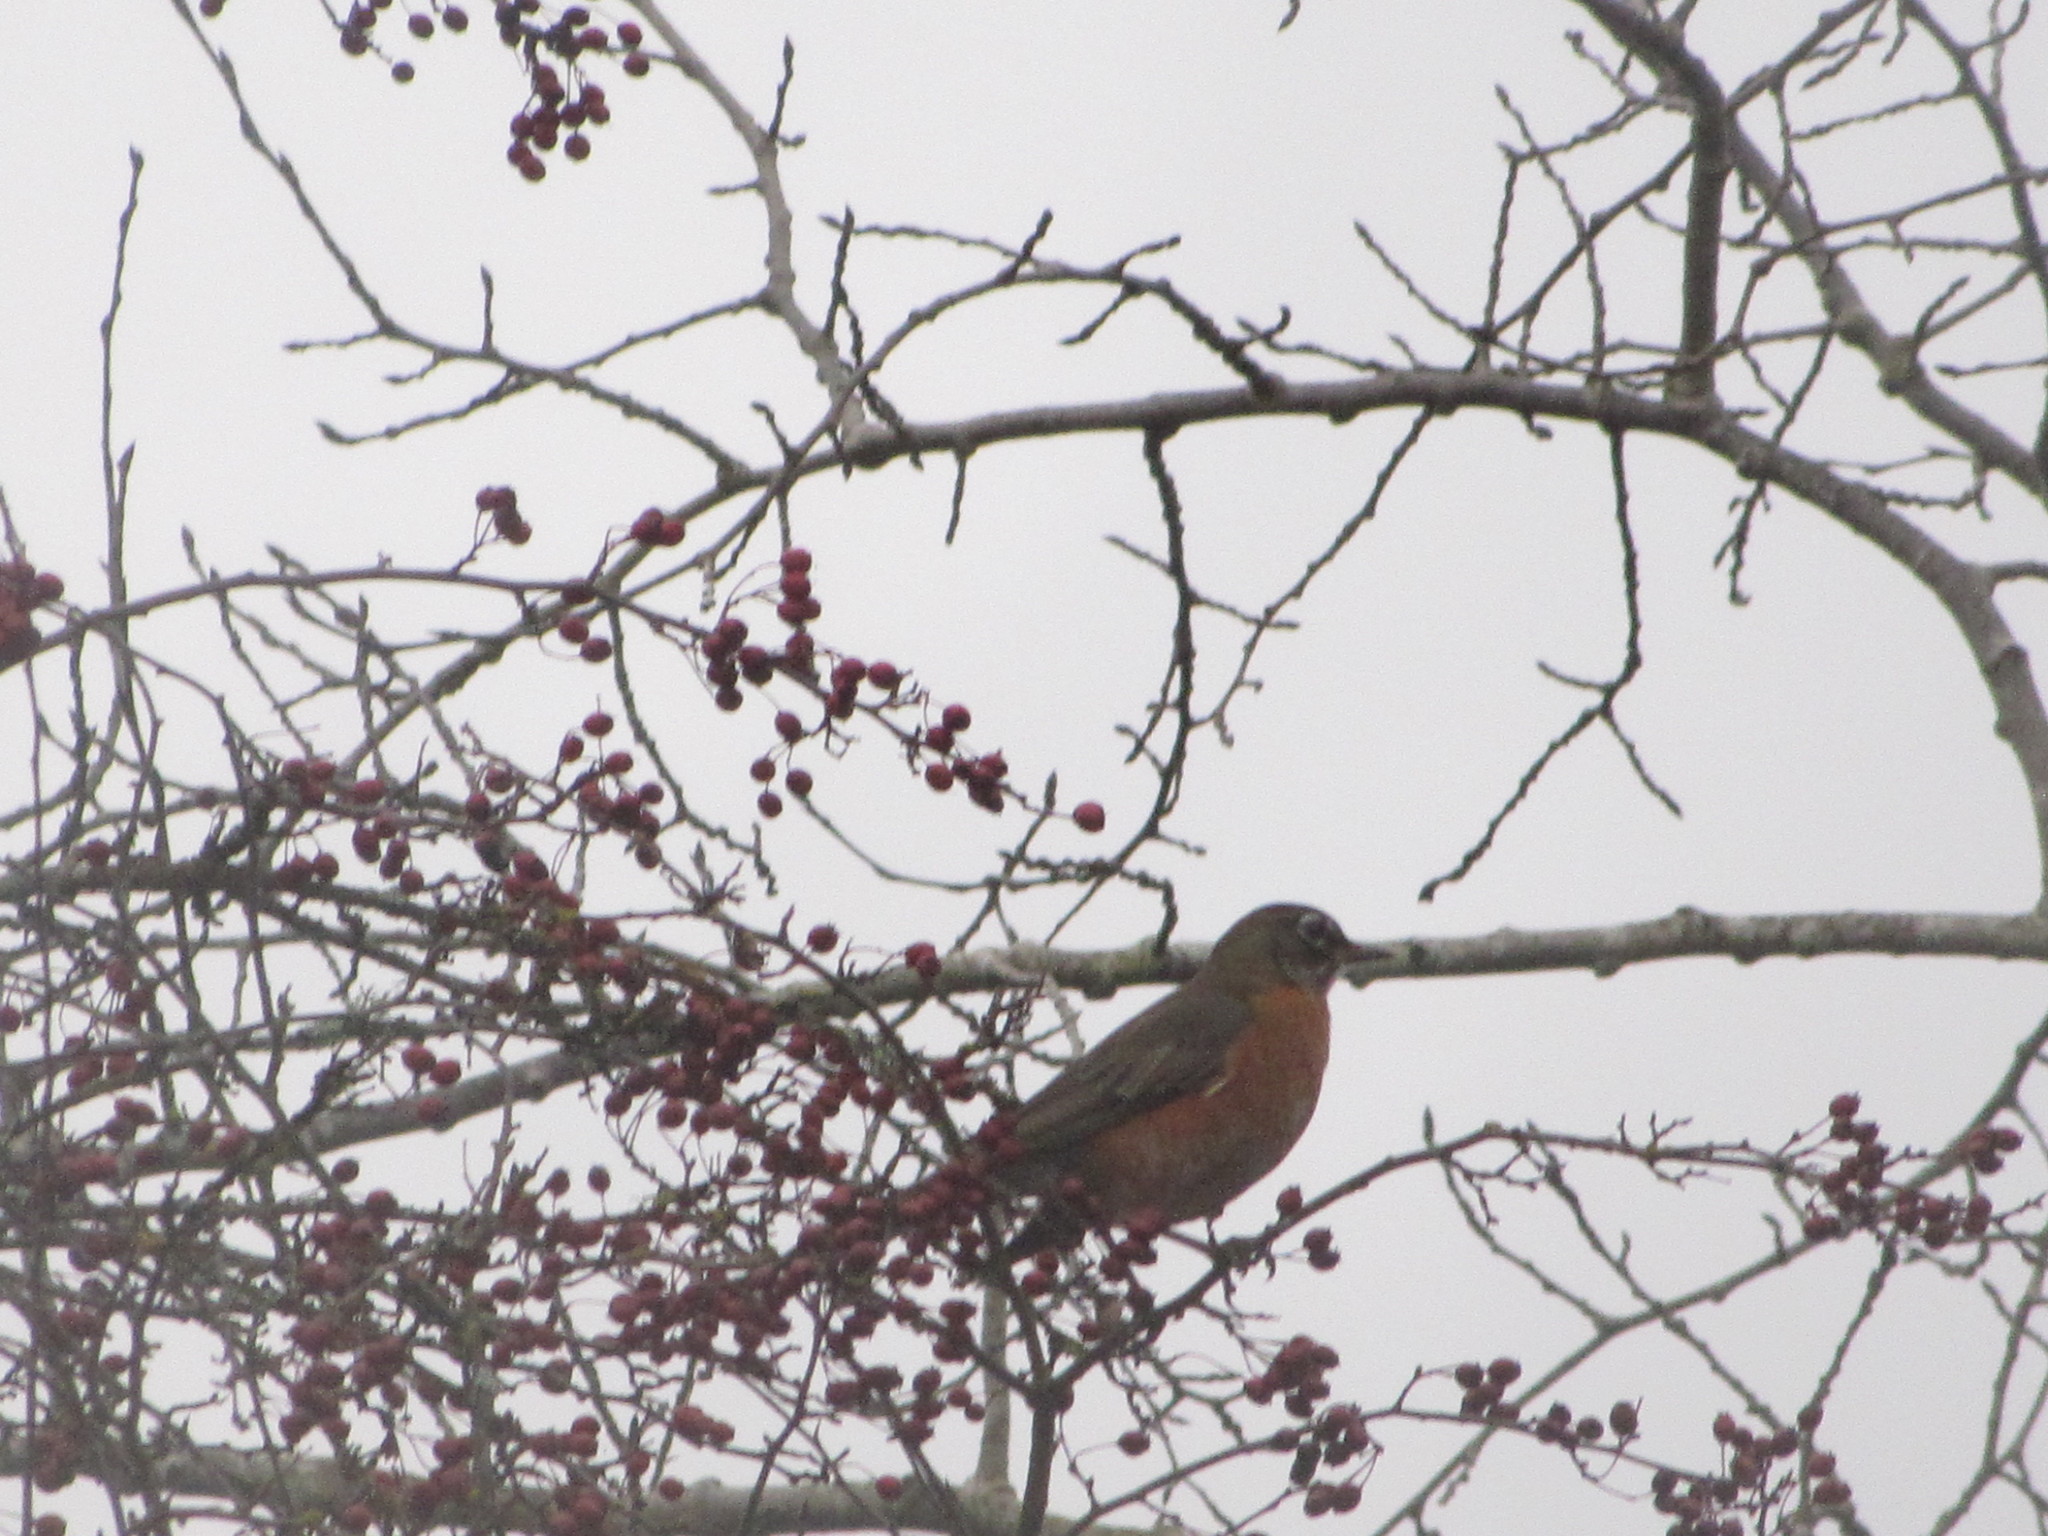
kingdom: Animalia
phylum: Chordata
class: Aves
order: Passeriformes
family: Turdidae
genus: Turdus
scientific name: Turdus migratorius
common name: American robin
